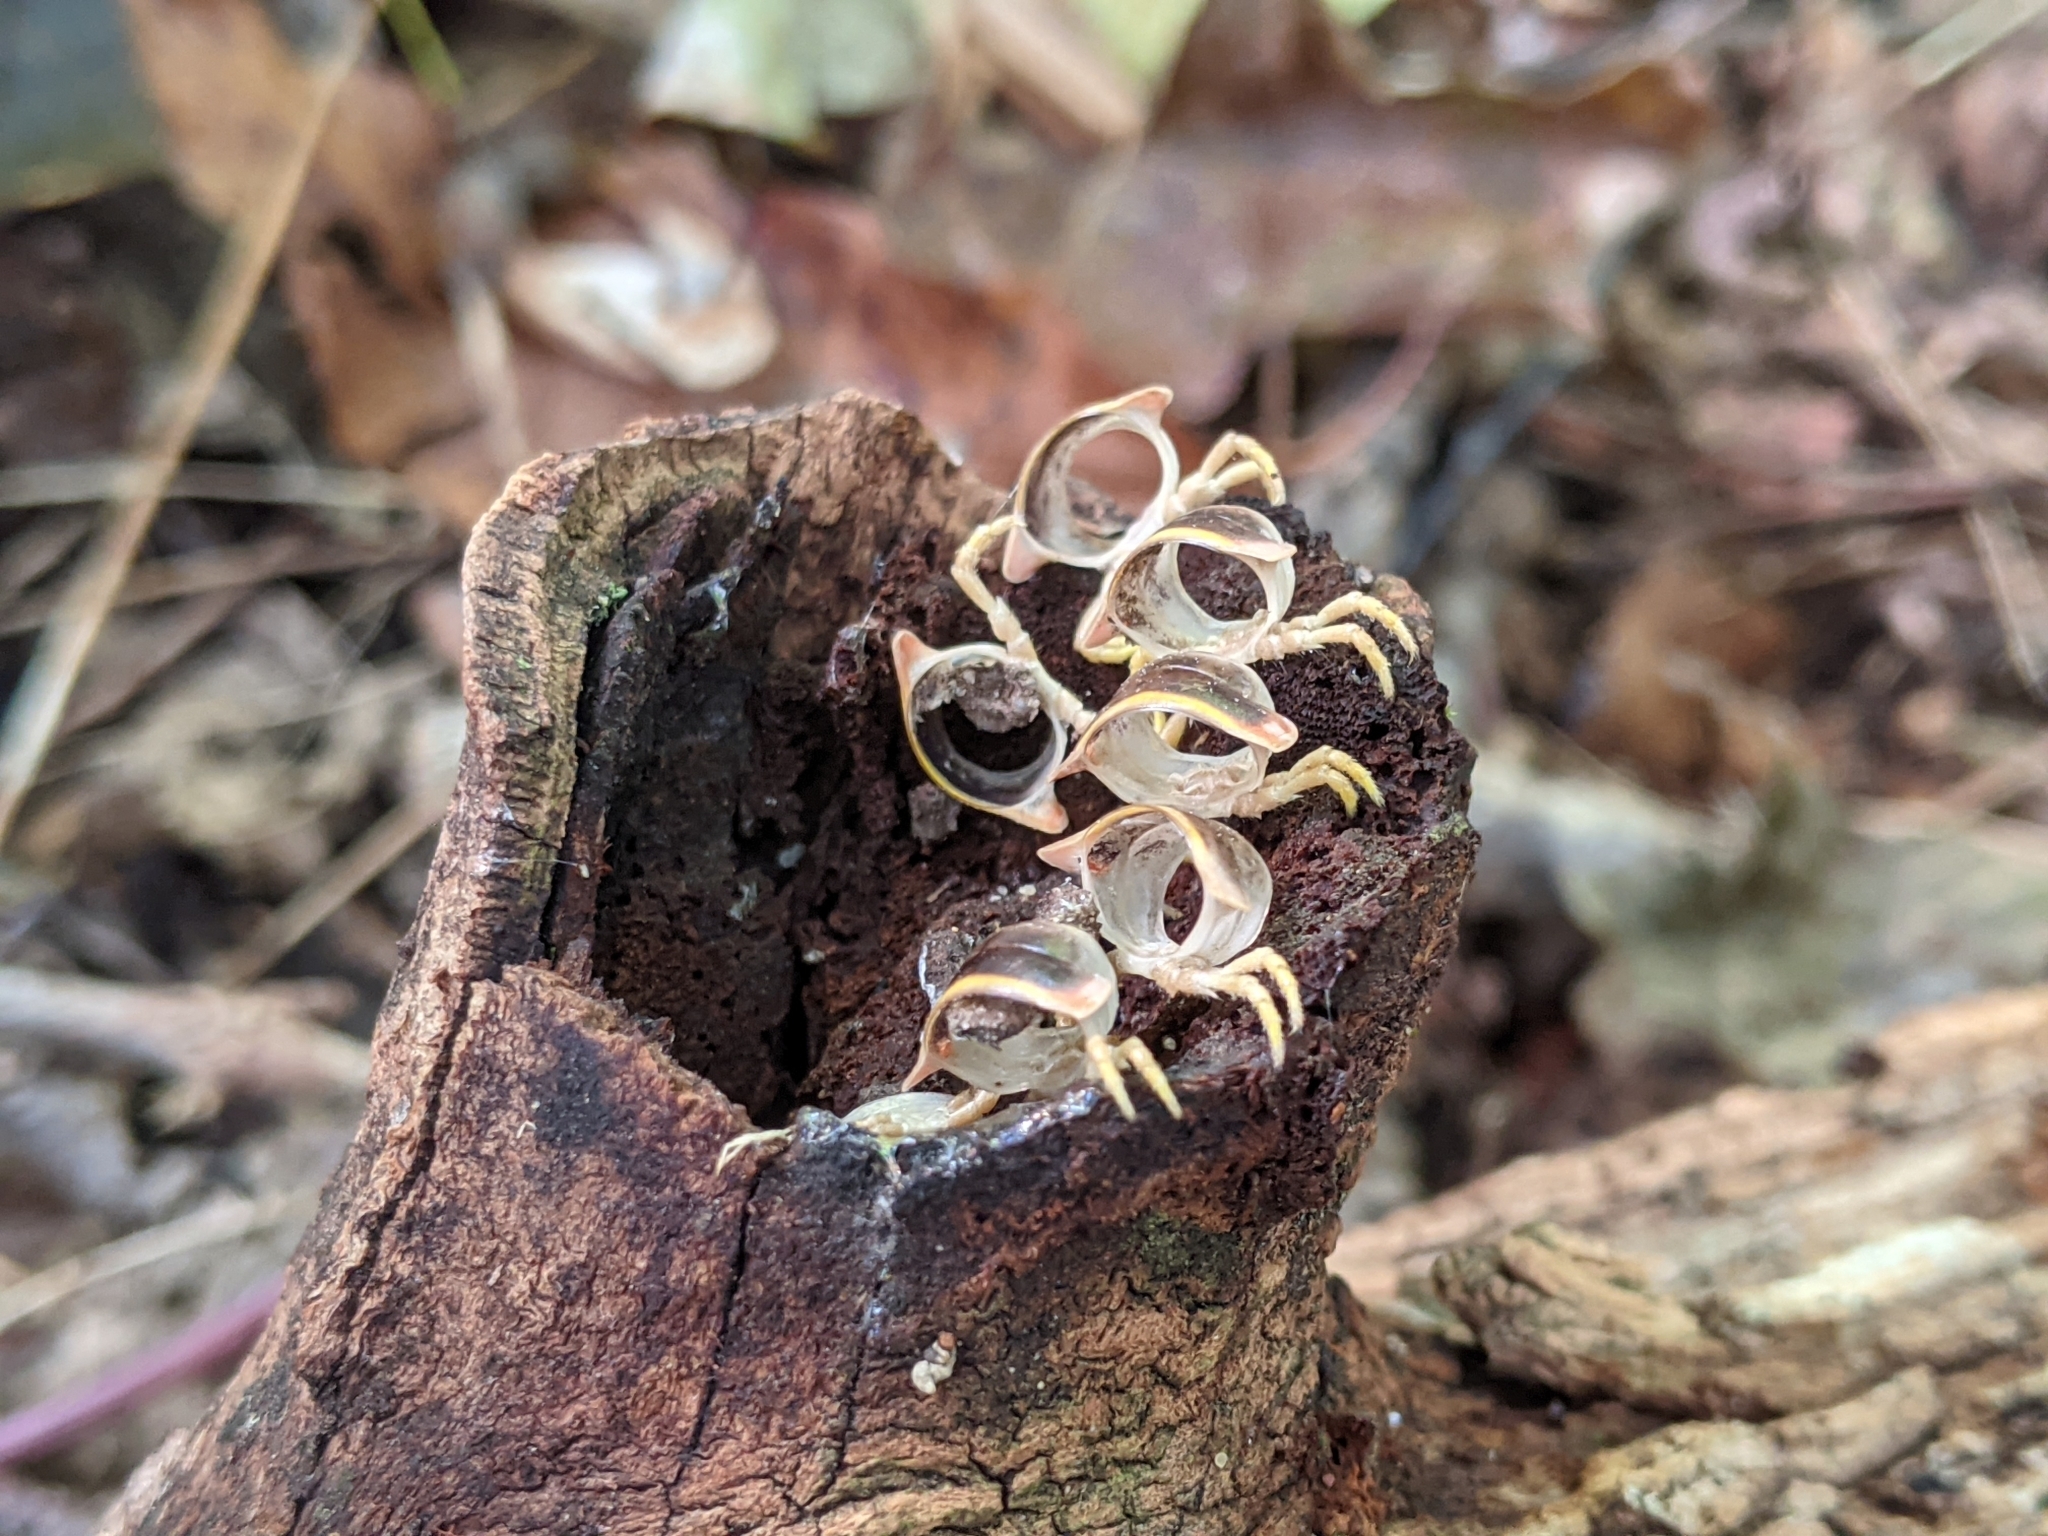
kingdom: Fungi
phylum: Entomophthoromycota
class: Entomophthoromycetes
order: Entomophthorales
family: Entomophthoraceae
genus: Arthrophaga
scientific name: Arthrophaga myriapodina
